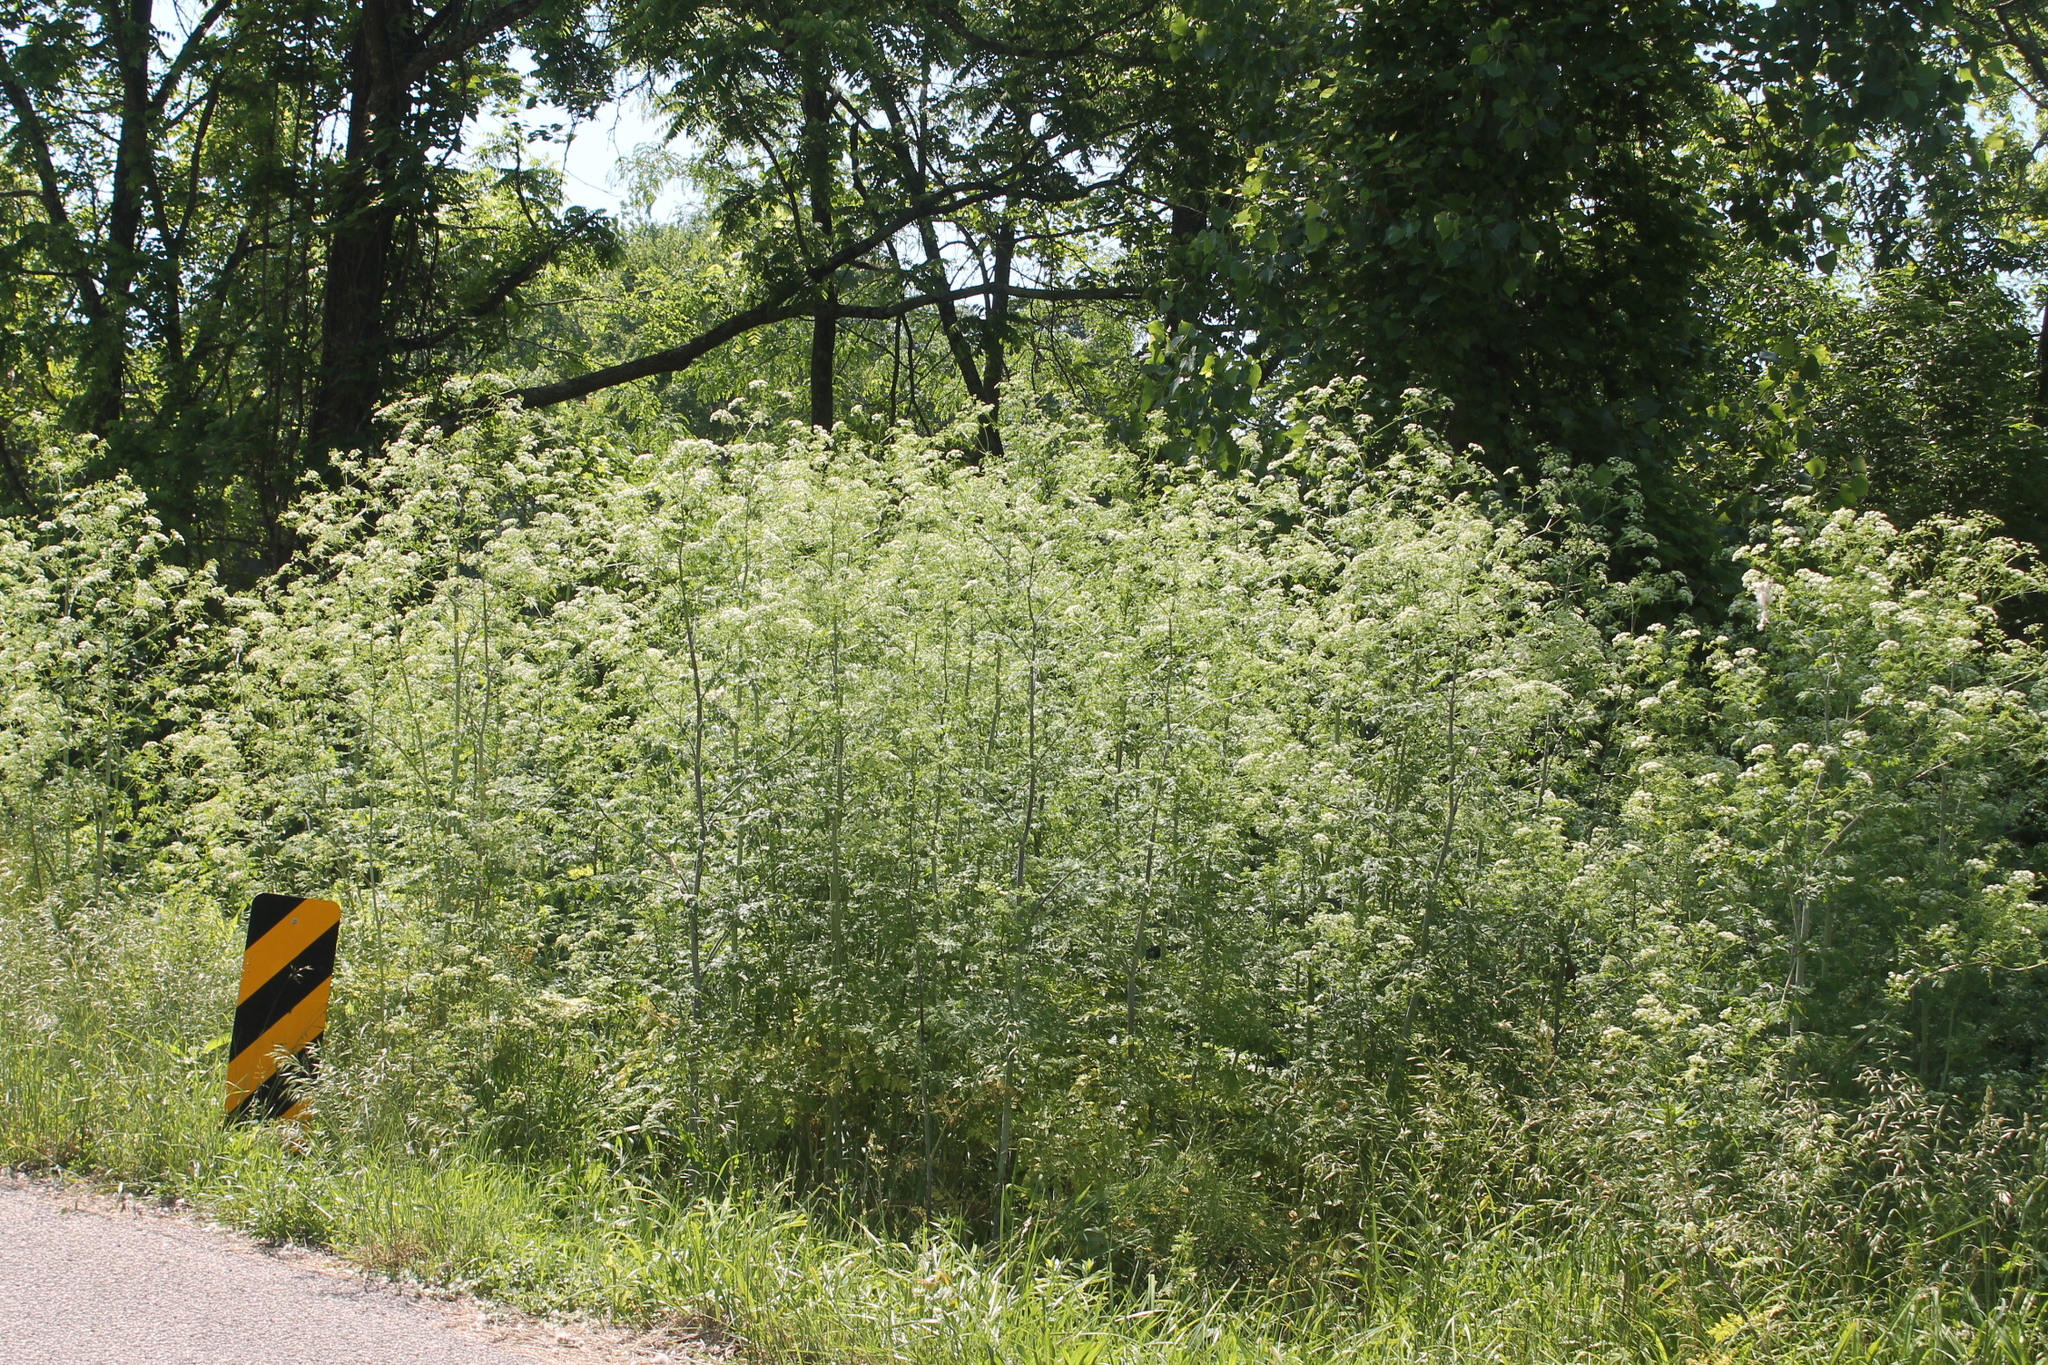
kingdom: Plantae
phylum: Tracheophyta
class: Magnoliopsida
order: Apiales
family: Apiaceae
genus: Conium
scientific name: Conium maculatum
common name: Hemlock
